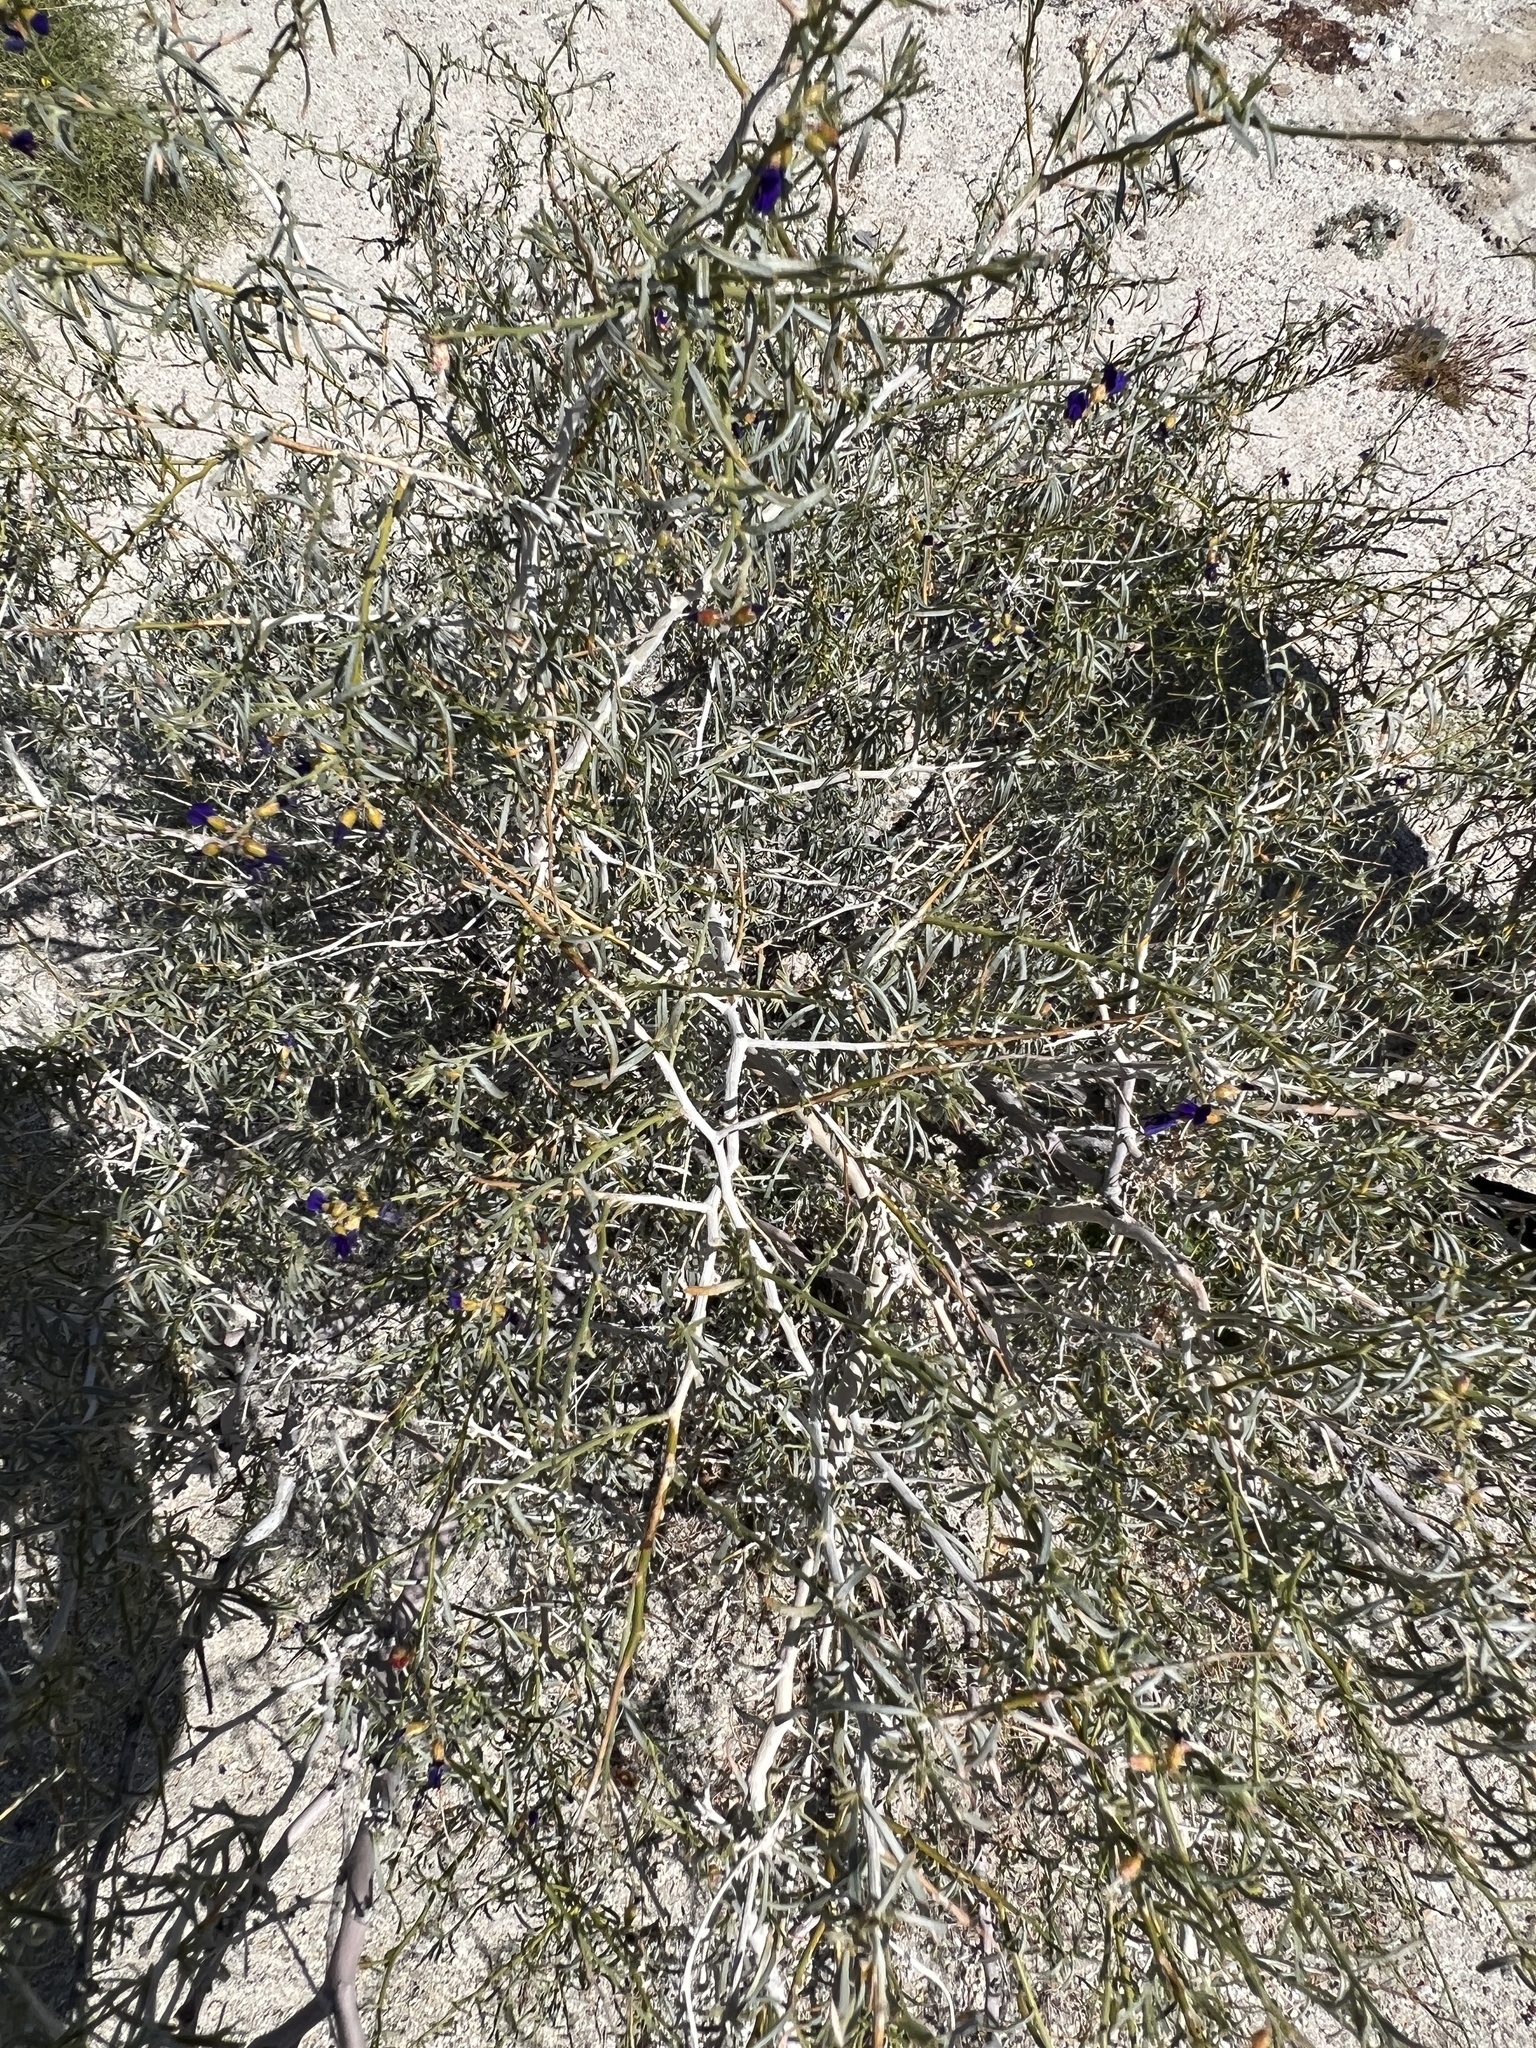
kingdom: Plantae
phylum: Tracheophyta
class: Magnoliopsida
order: Fabales
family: Fabaceae
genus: Psorothamnus
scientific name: Psorothamnus schottii
